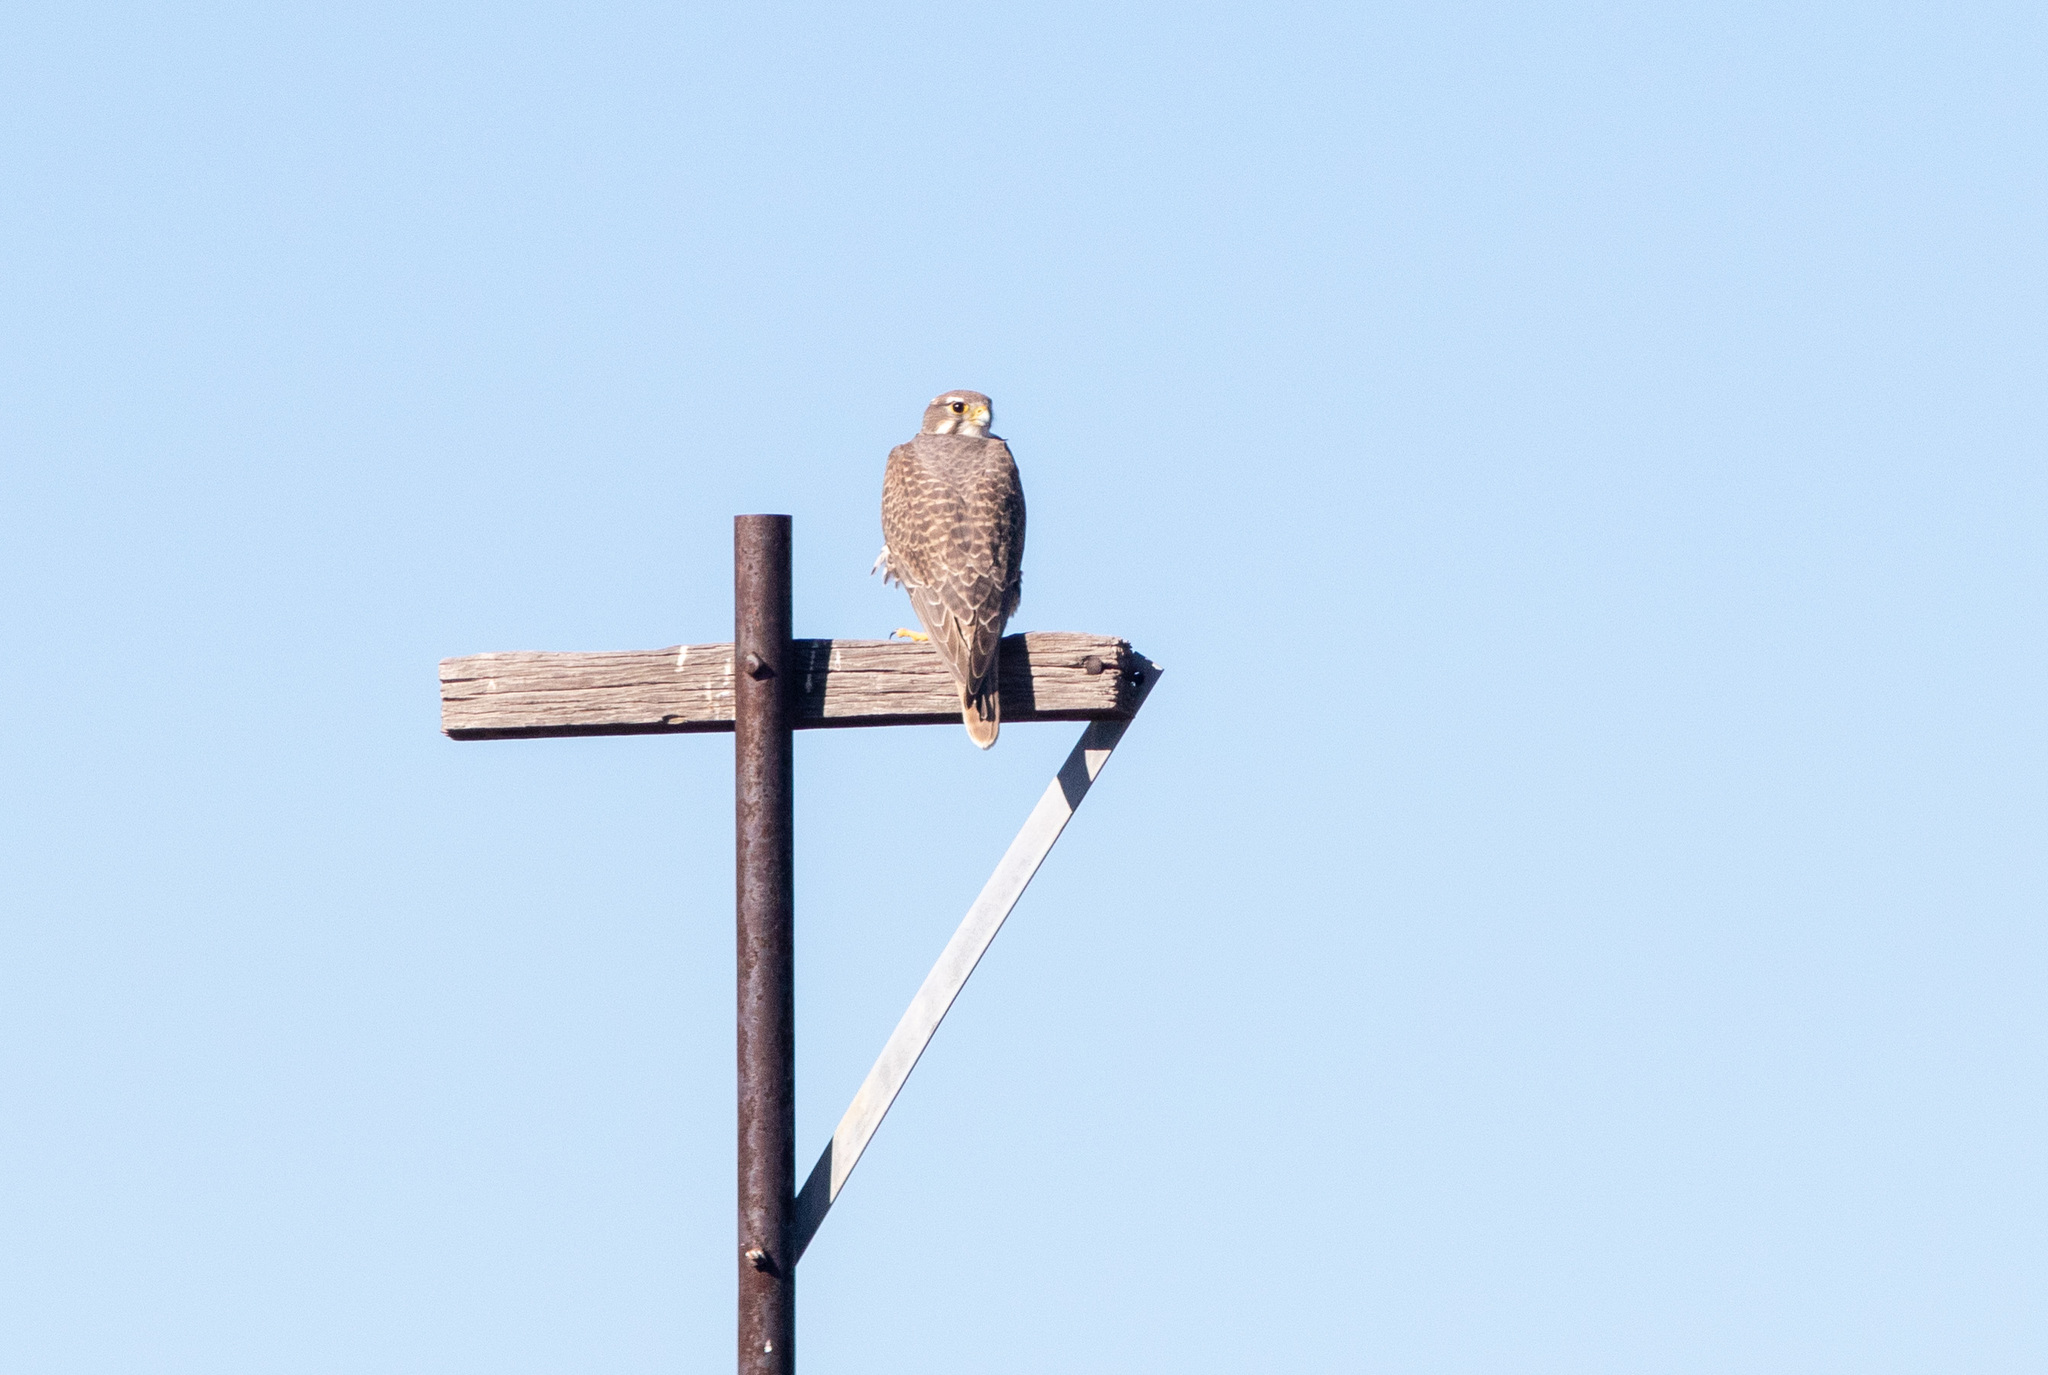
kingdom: Animalia
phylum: Chordata
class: Aves
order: Falconiformes
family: Falconidae
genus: Falco
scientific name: Falco mexicanus
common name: Prairie falcon
